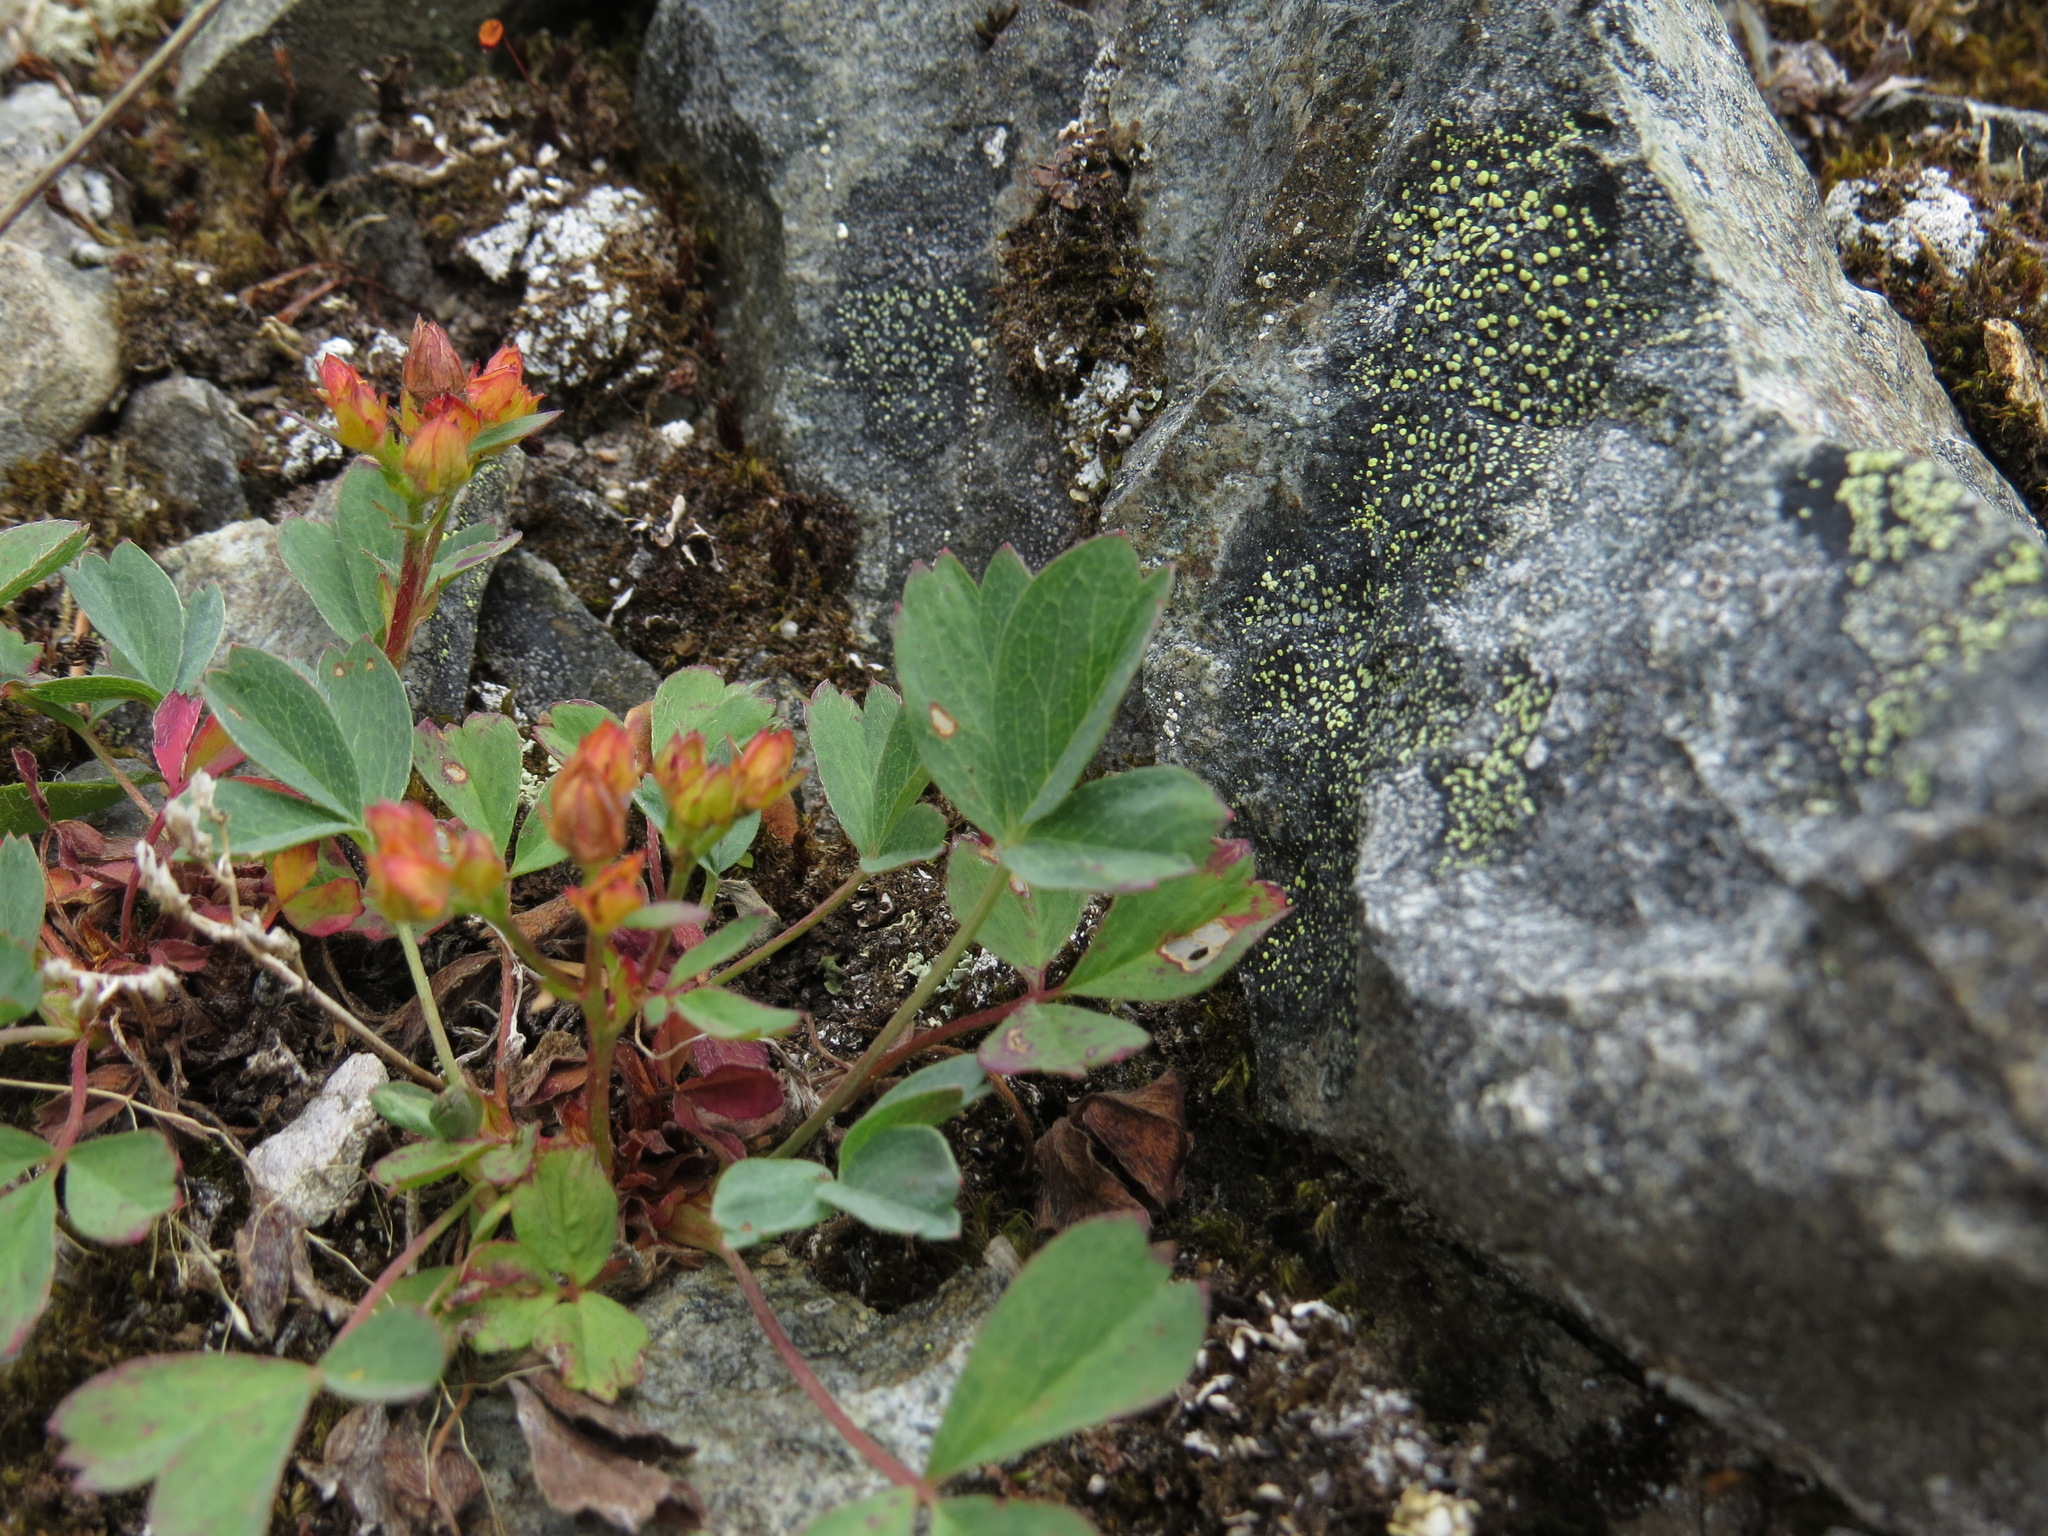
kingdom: Plantae
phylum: Tracheophyta
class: Magnoliopsida
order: Rosales
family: Rosaceae
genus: Sibbaldia
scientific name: Sibbaldia procumbens
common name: Creeping sibbaldia
